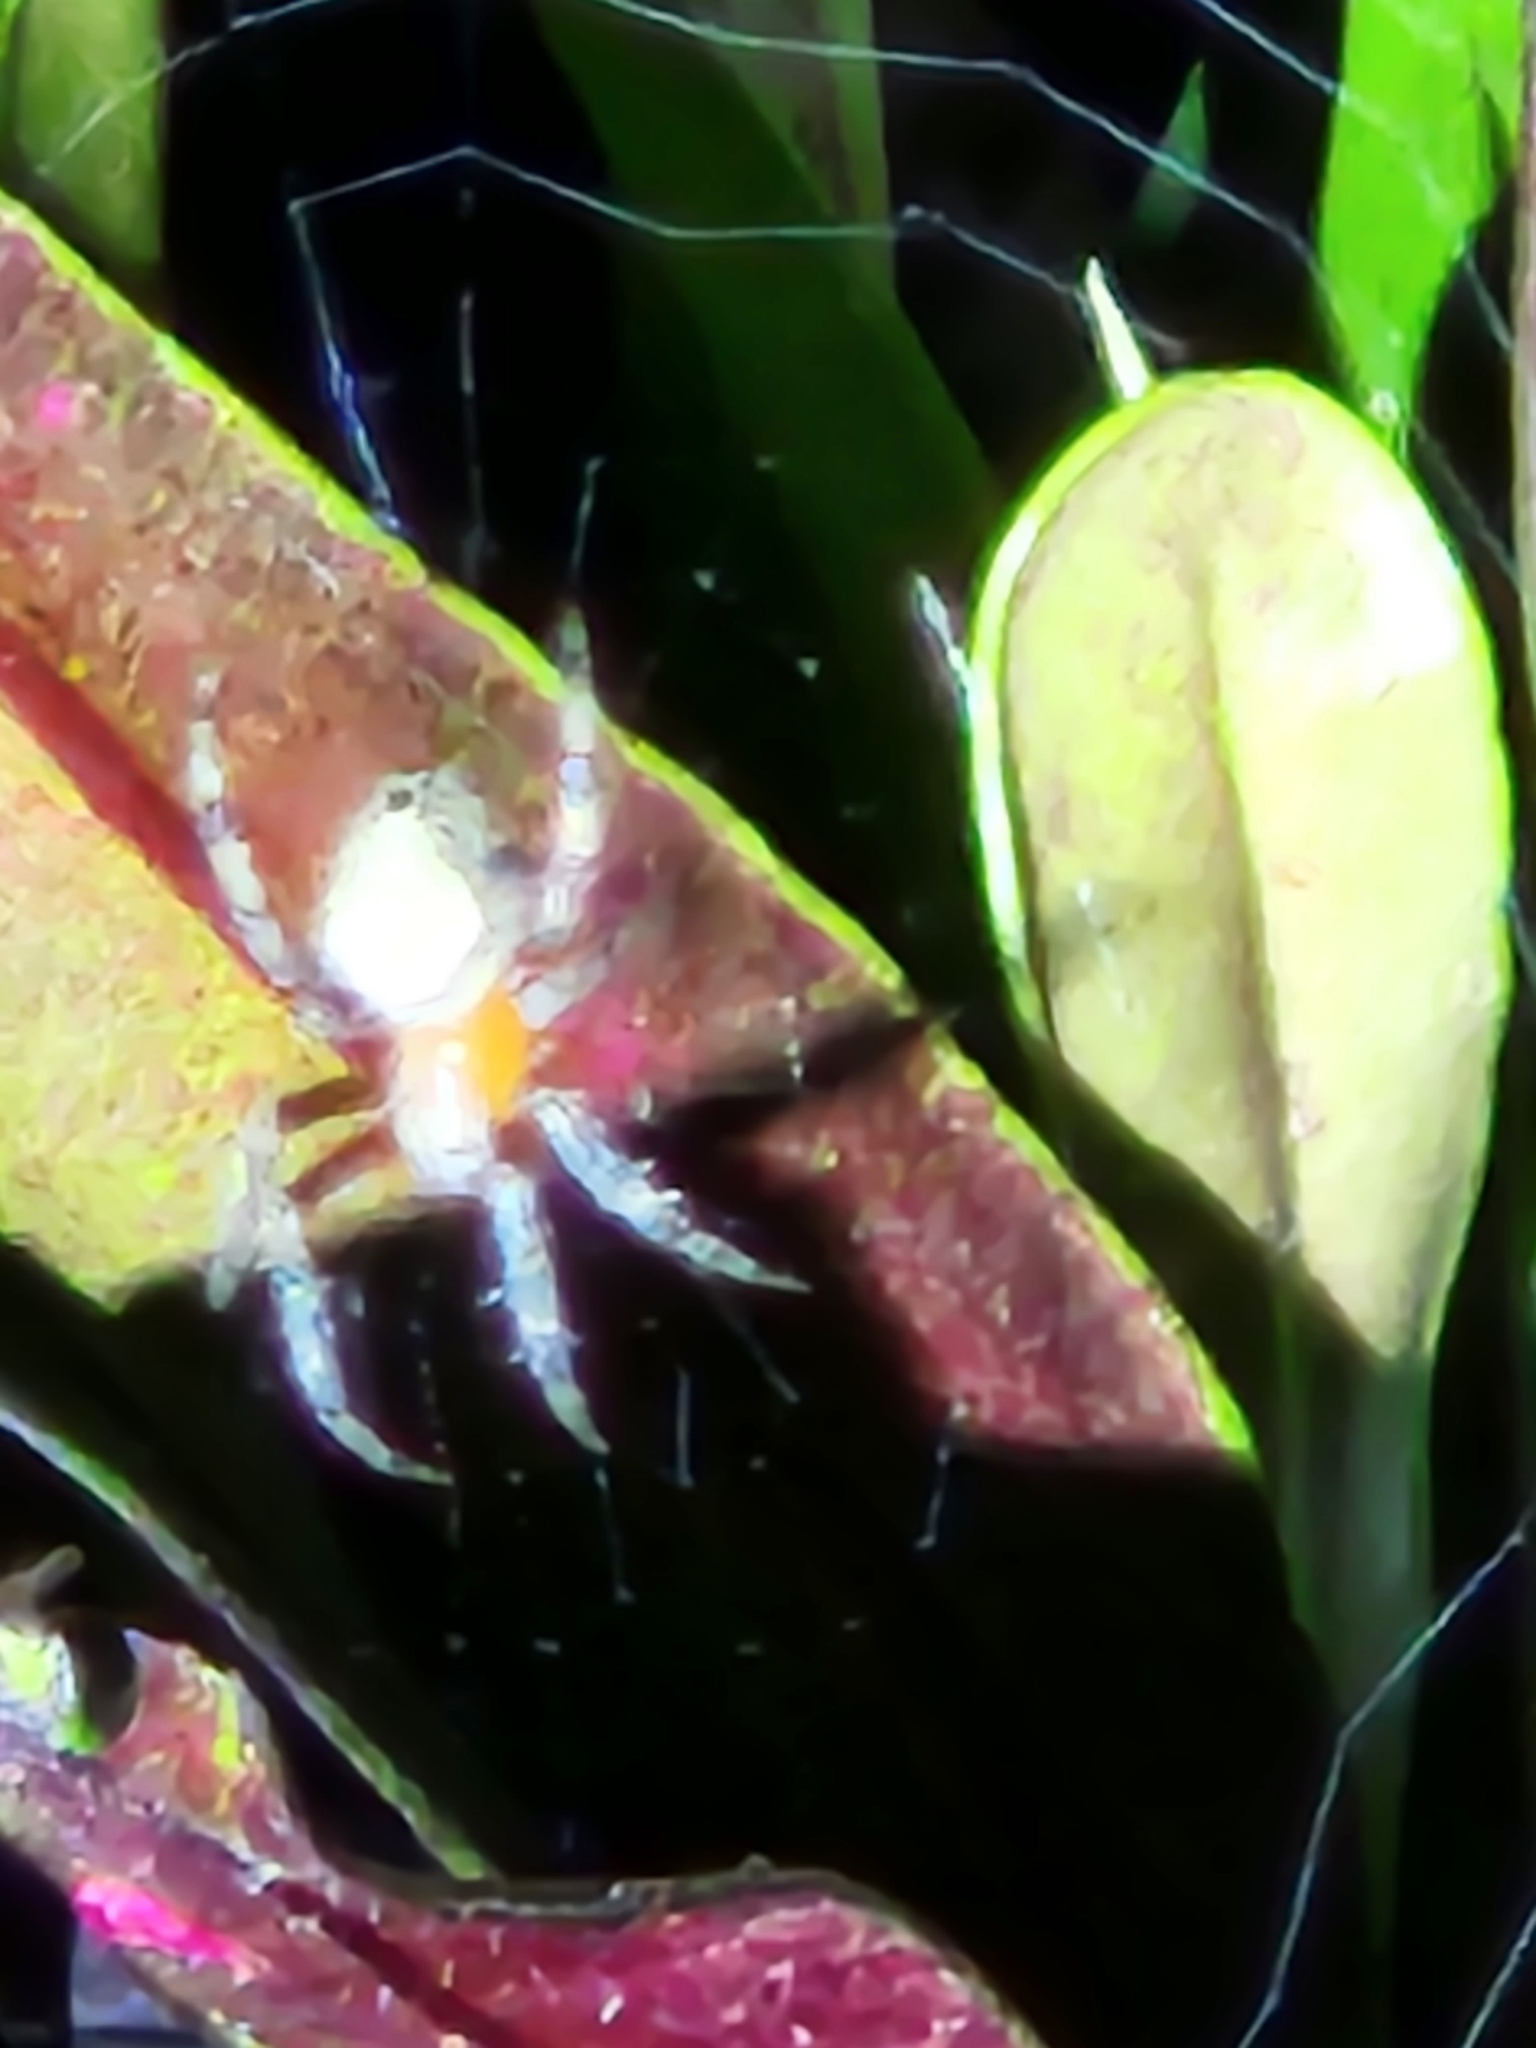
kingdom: Animalia
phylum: Arthropoda
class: Arachnida
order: Araneae
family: Araneidae
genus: Eriophora
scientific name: Eriophora ravilla
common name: Orb weavers
